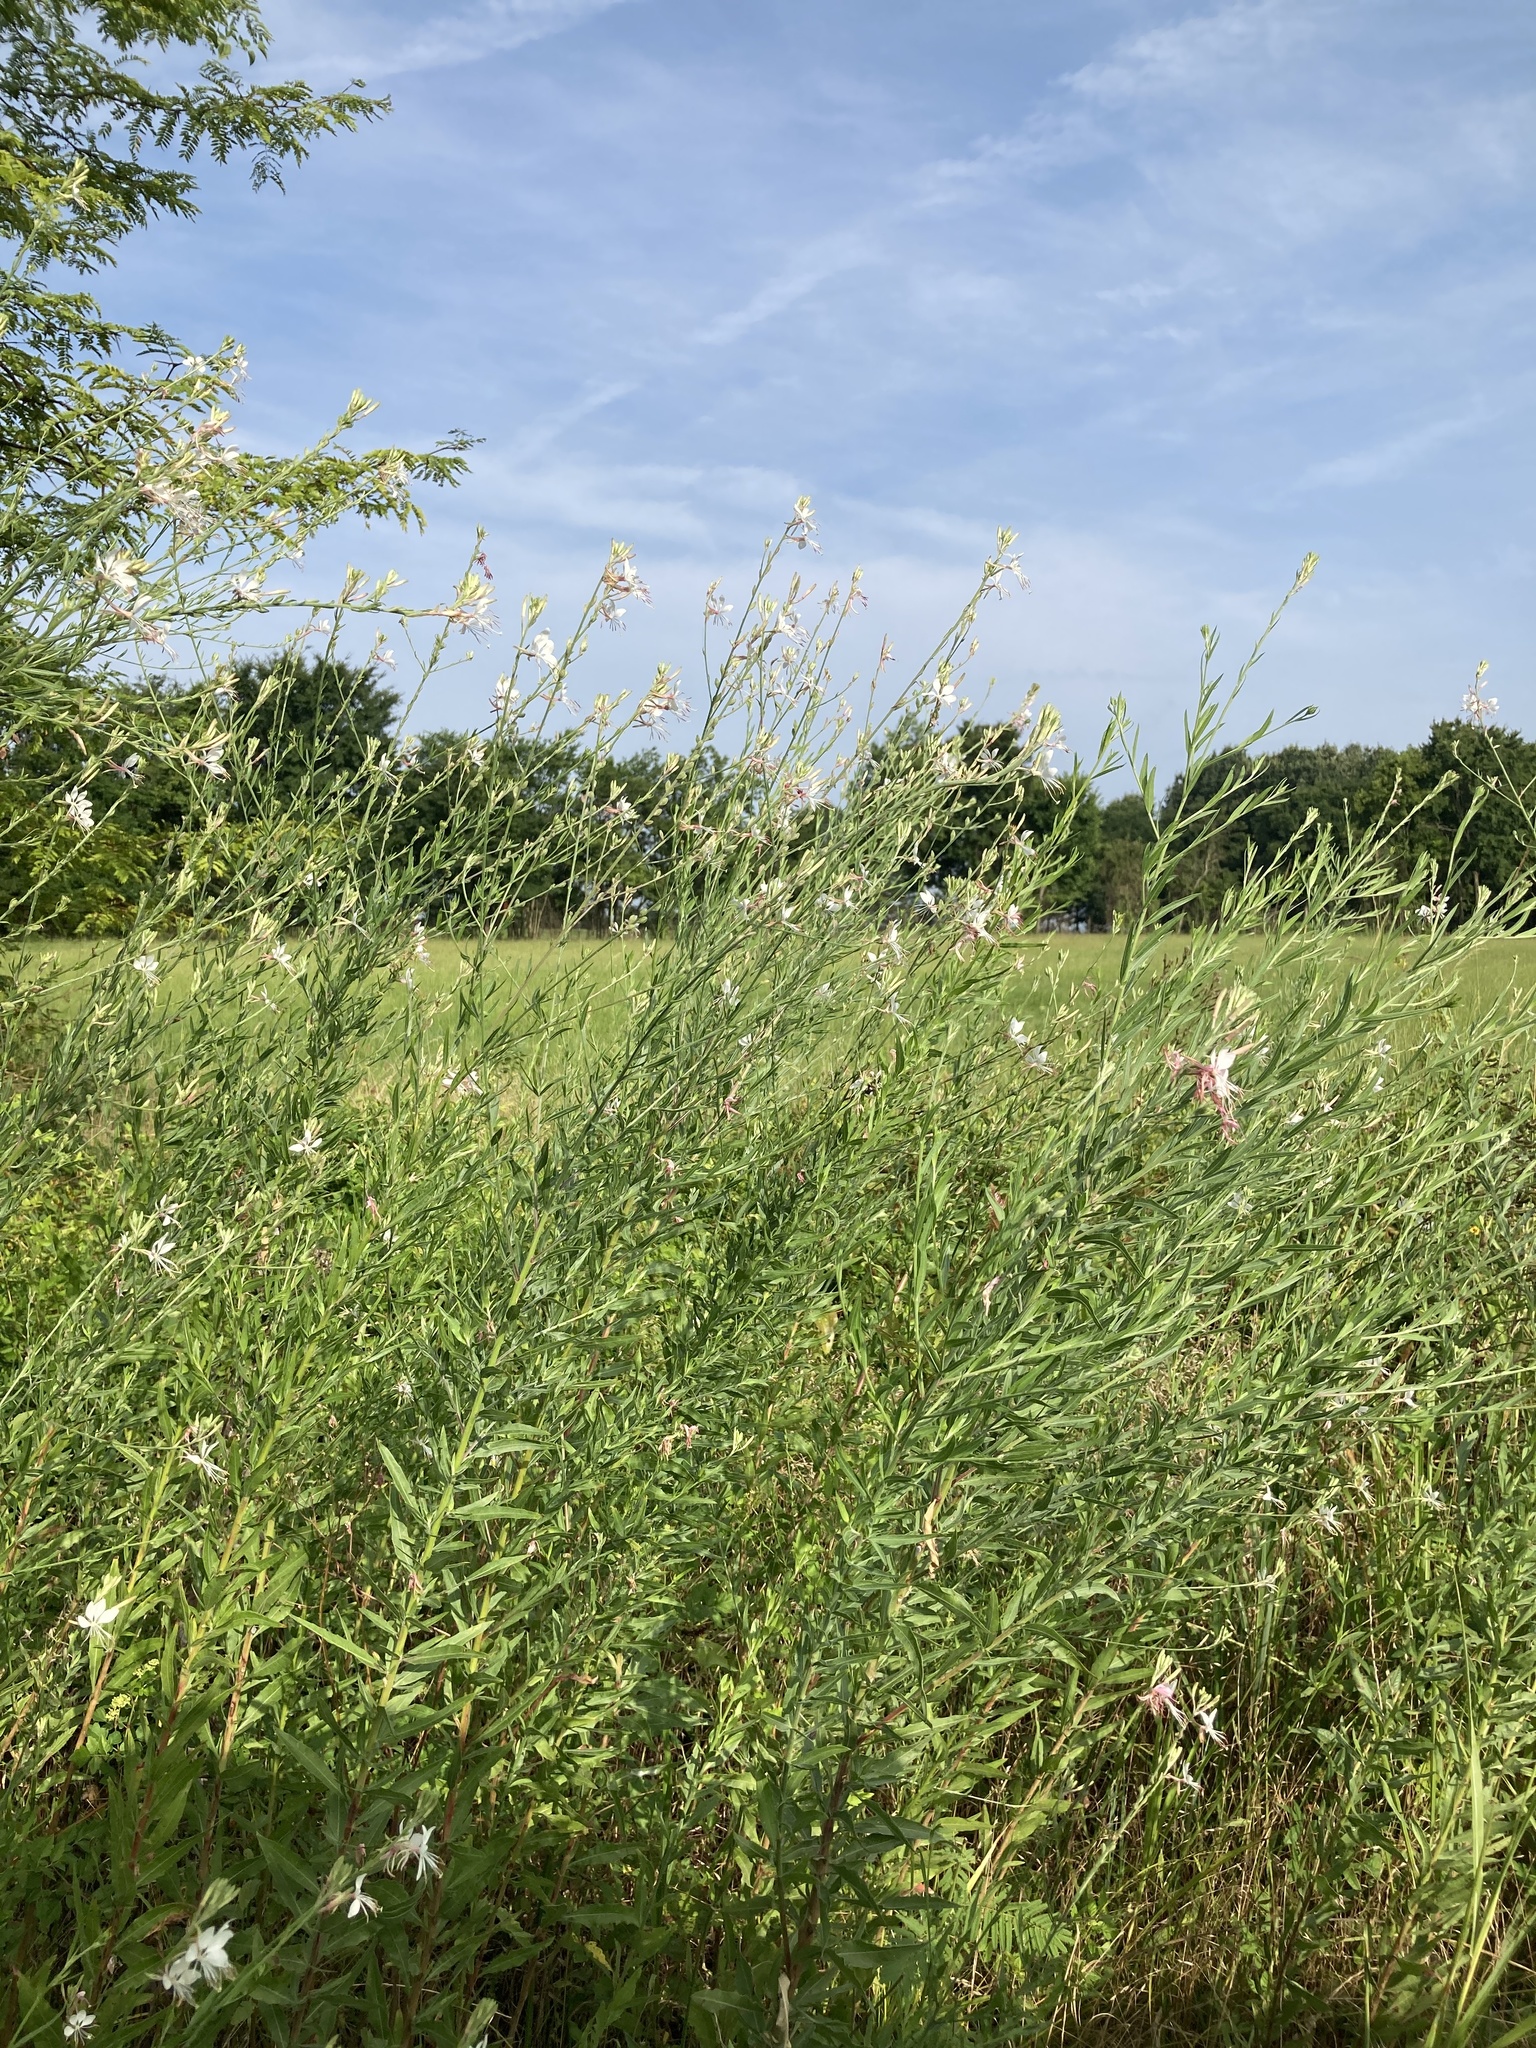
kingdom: Plantae
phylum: Tracheophyta
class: Magnoliopsida
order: Myrtales
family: Onagraceae
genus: Oenothera
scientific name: Oenothera filiformis
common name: Longflower beeblossom
